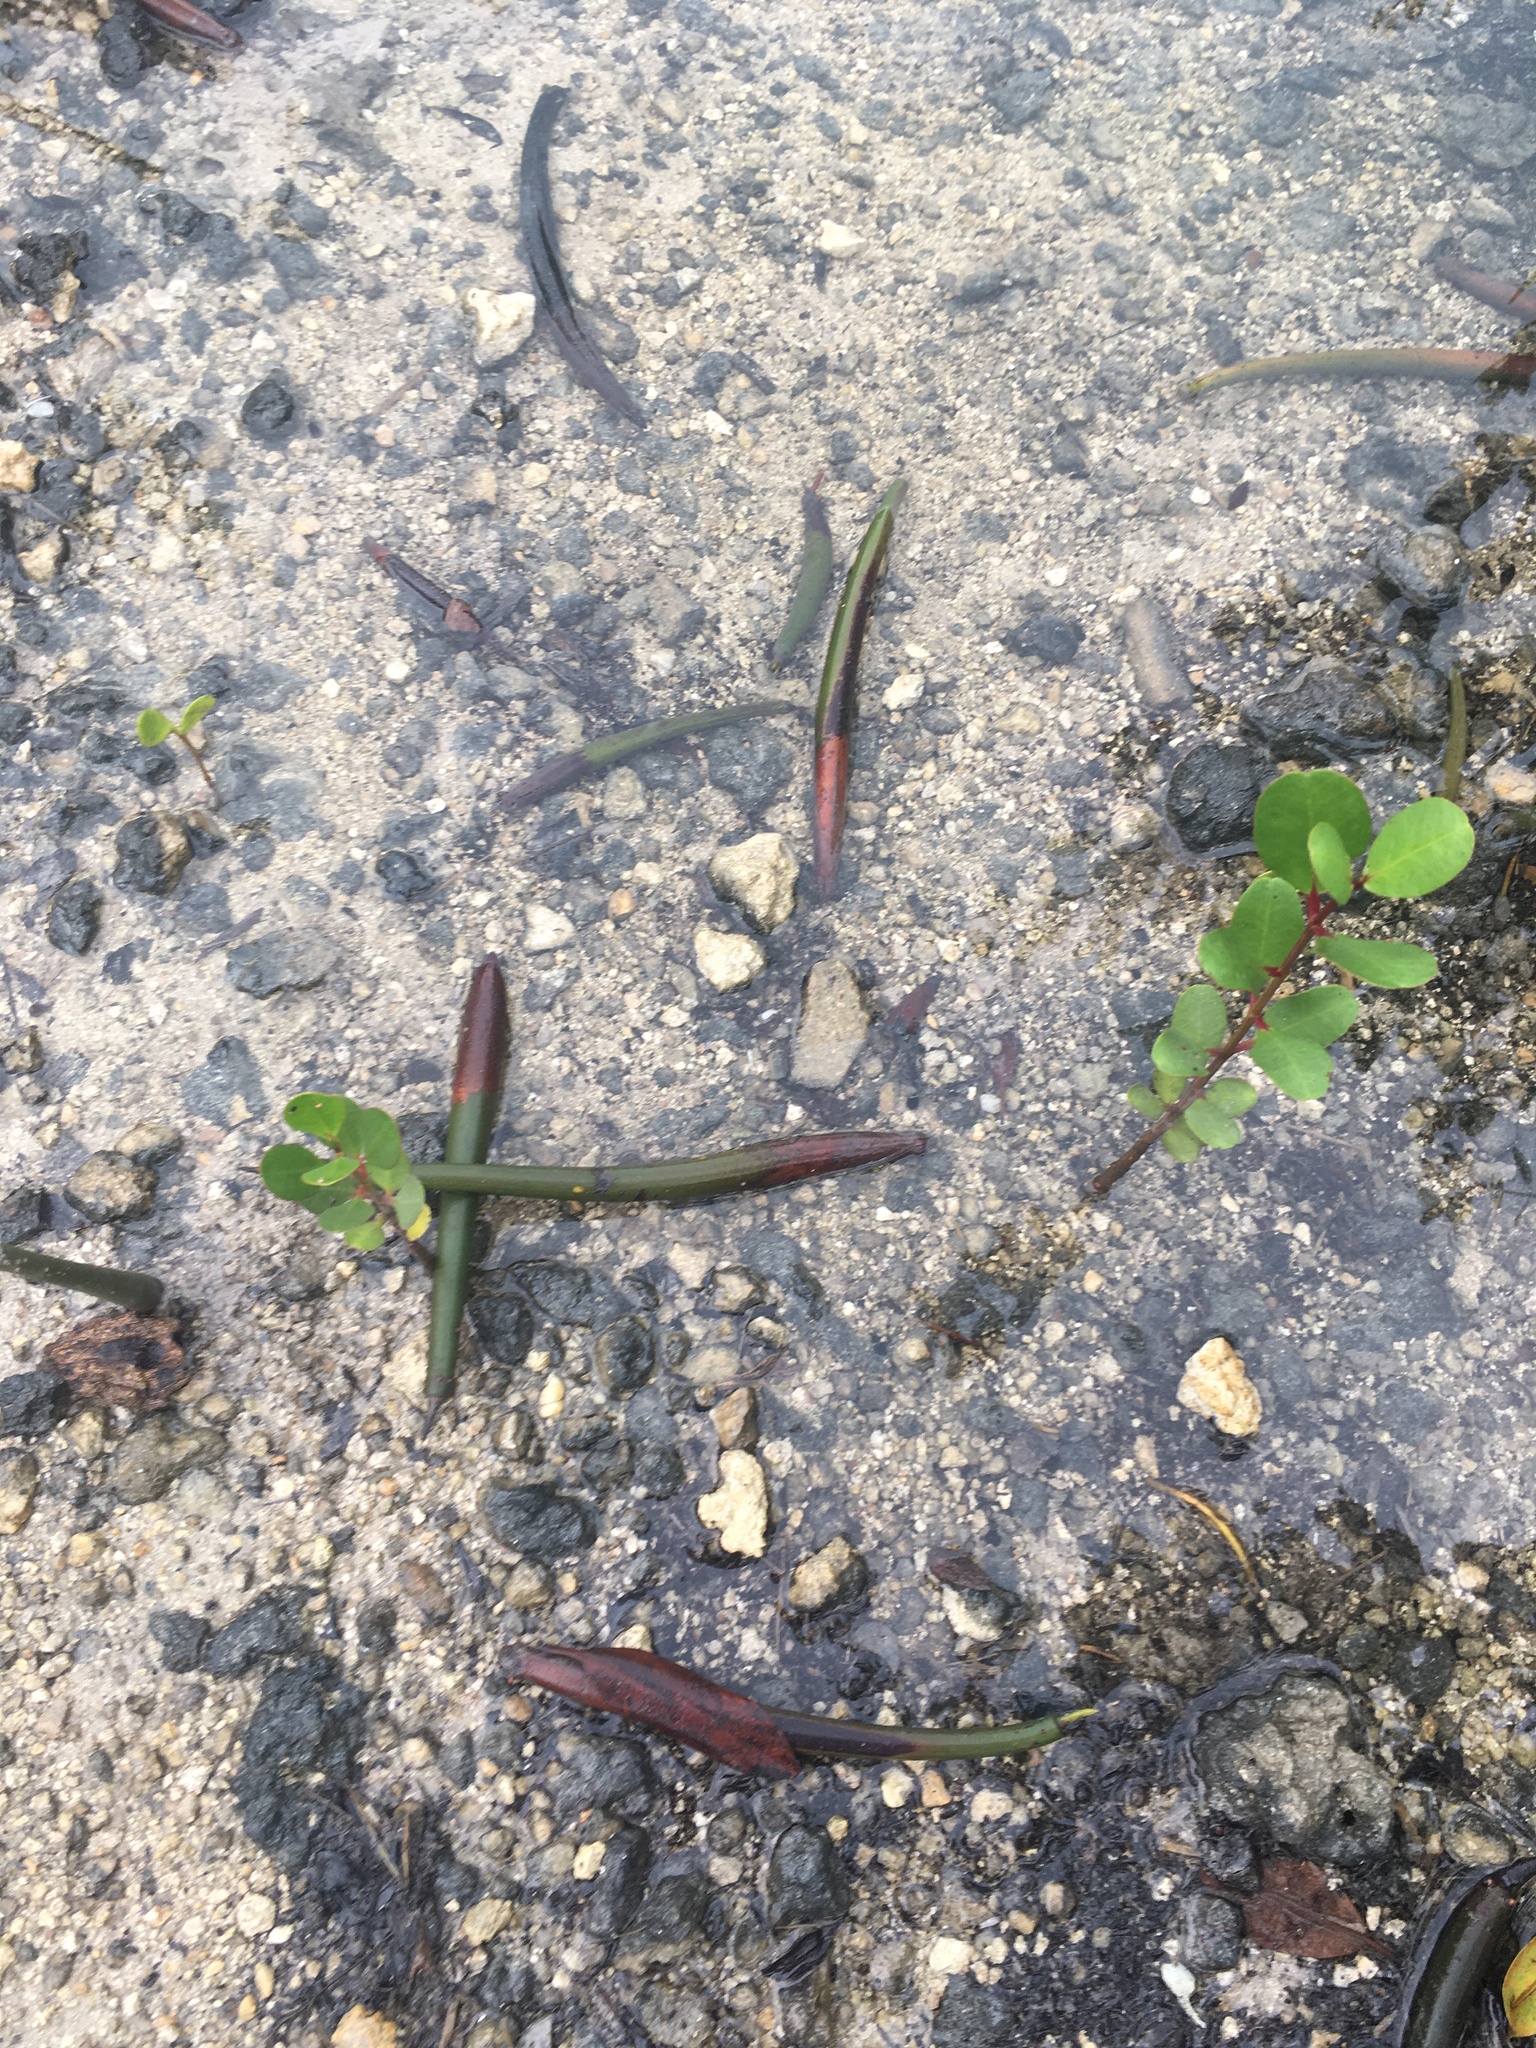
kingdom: Plantae
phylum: Tracheophyta
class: Magnoliopsida
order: Malpighiales
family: Rhizophoraceae
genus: Rhizophora
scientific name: Rhizophora mangle
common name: Red mangrove
